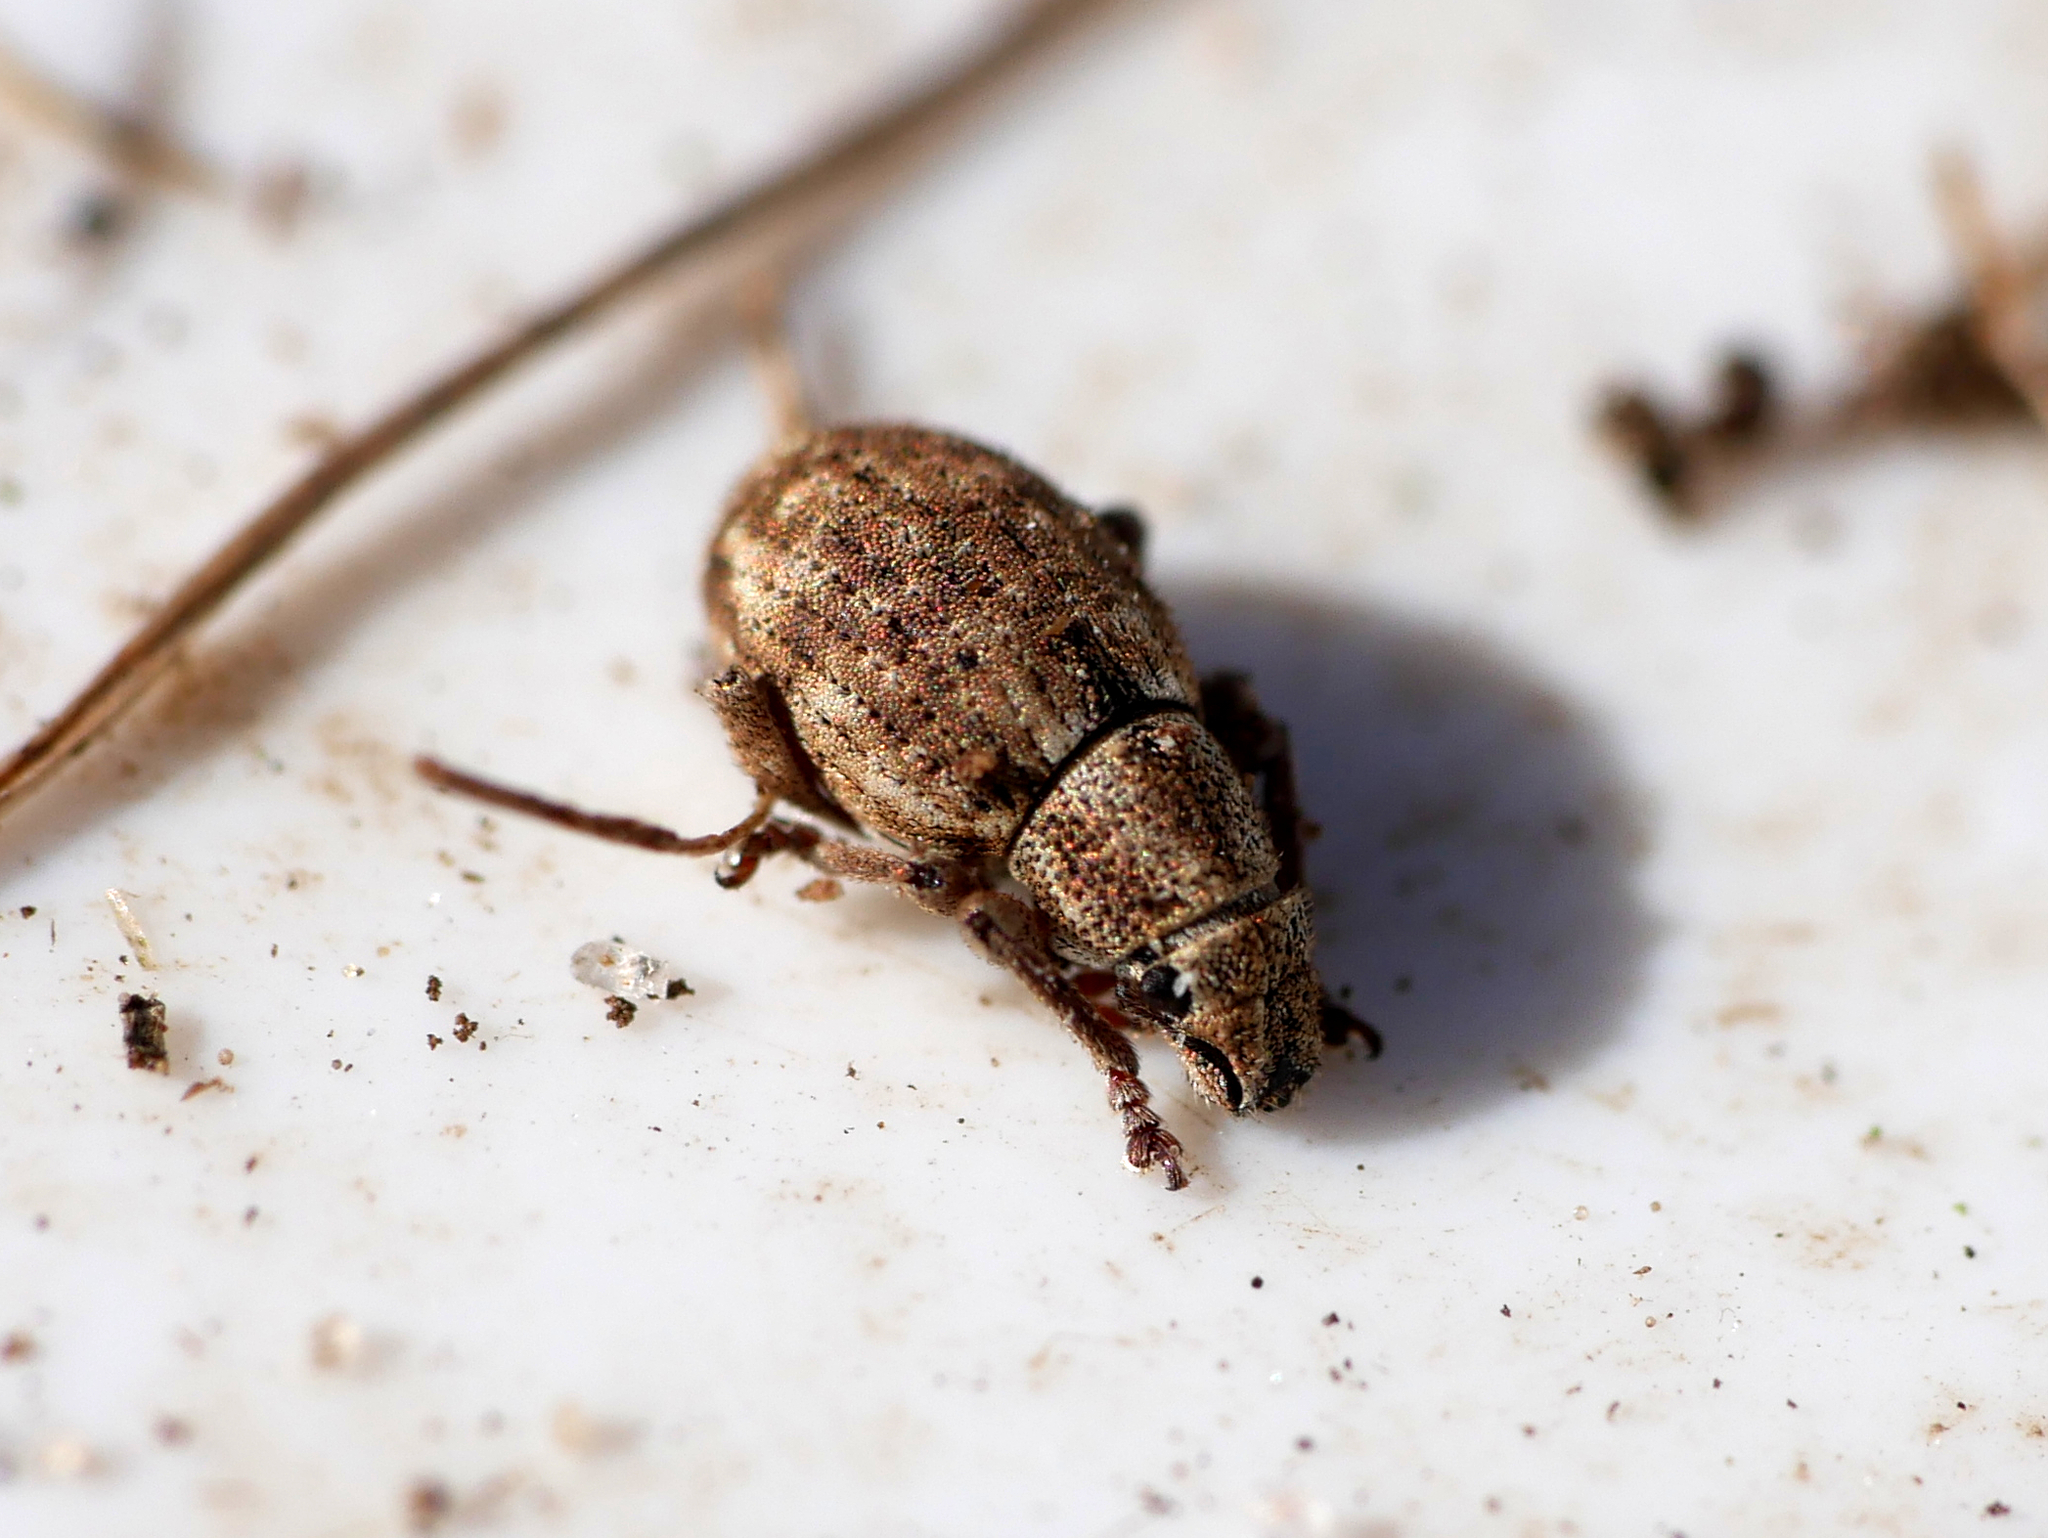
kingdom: Animalia
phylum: Arthropoda
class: Insecta
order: Coleoptera
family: Curculionidae
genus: Strophosoma
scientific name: Strophosoma capitatum
